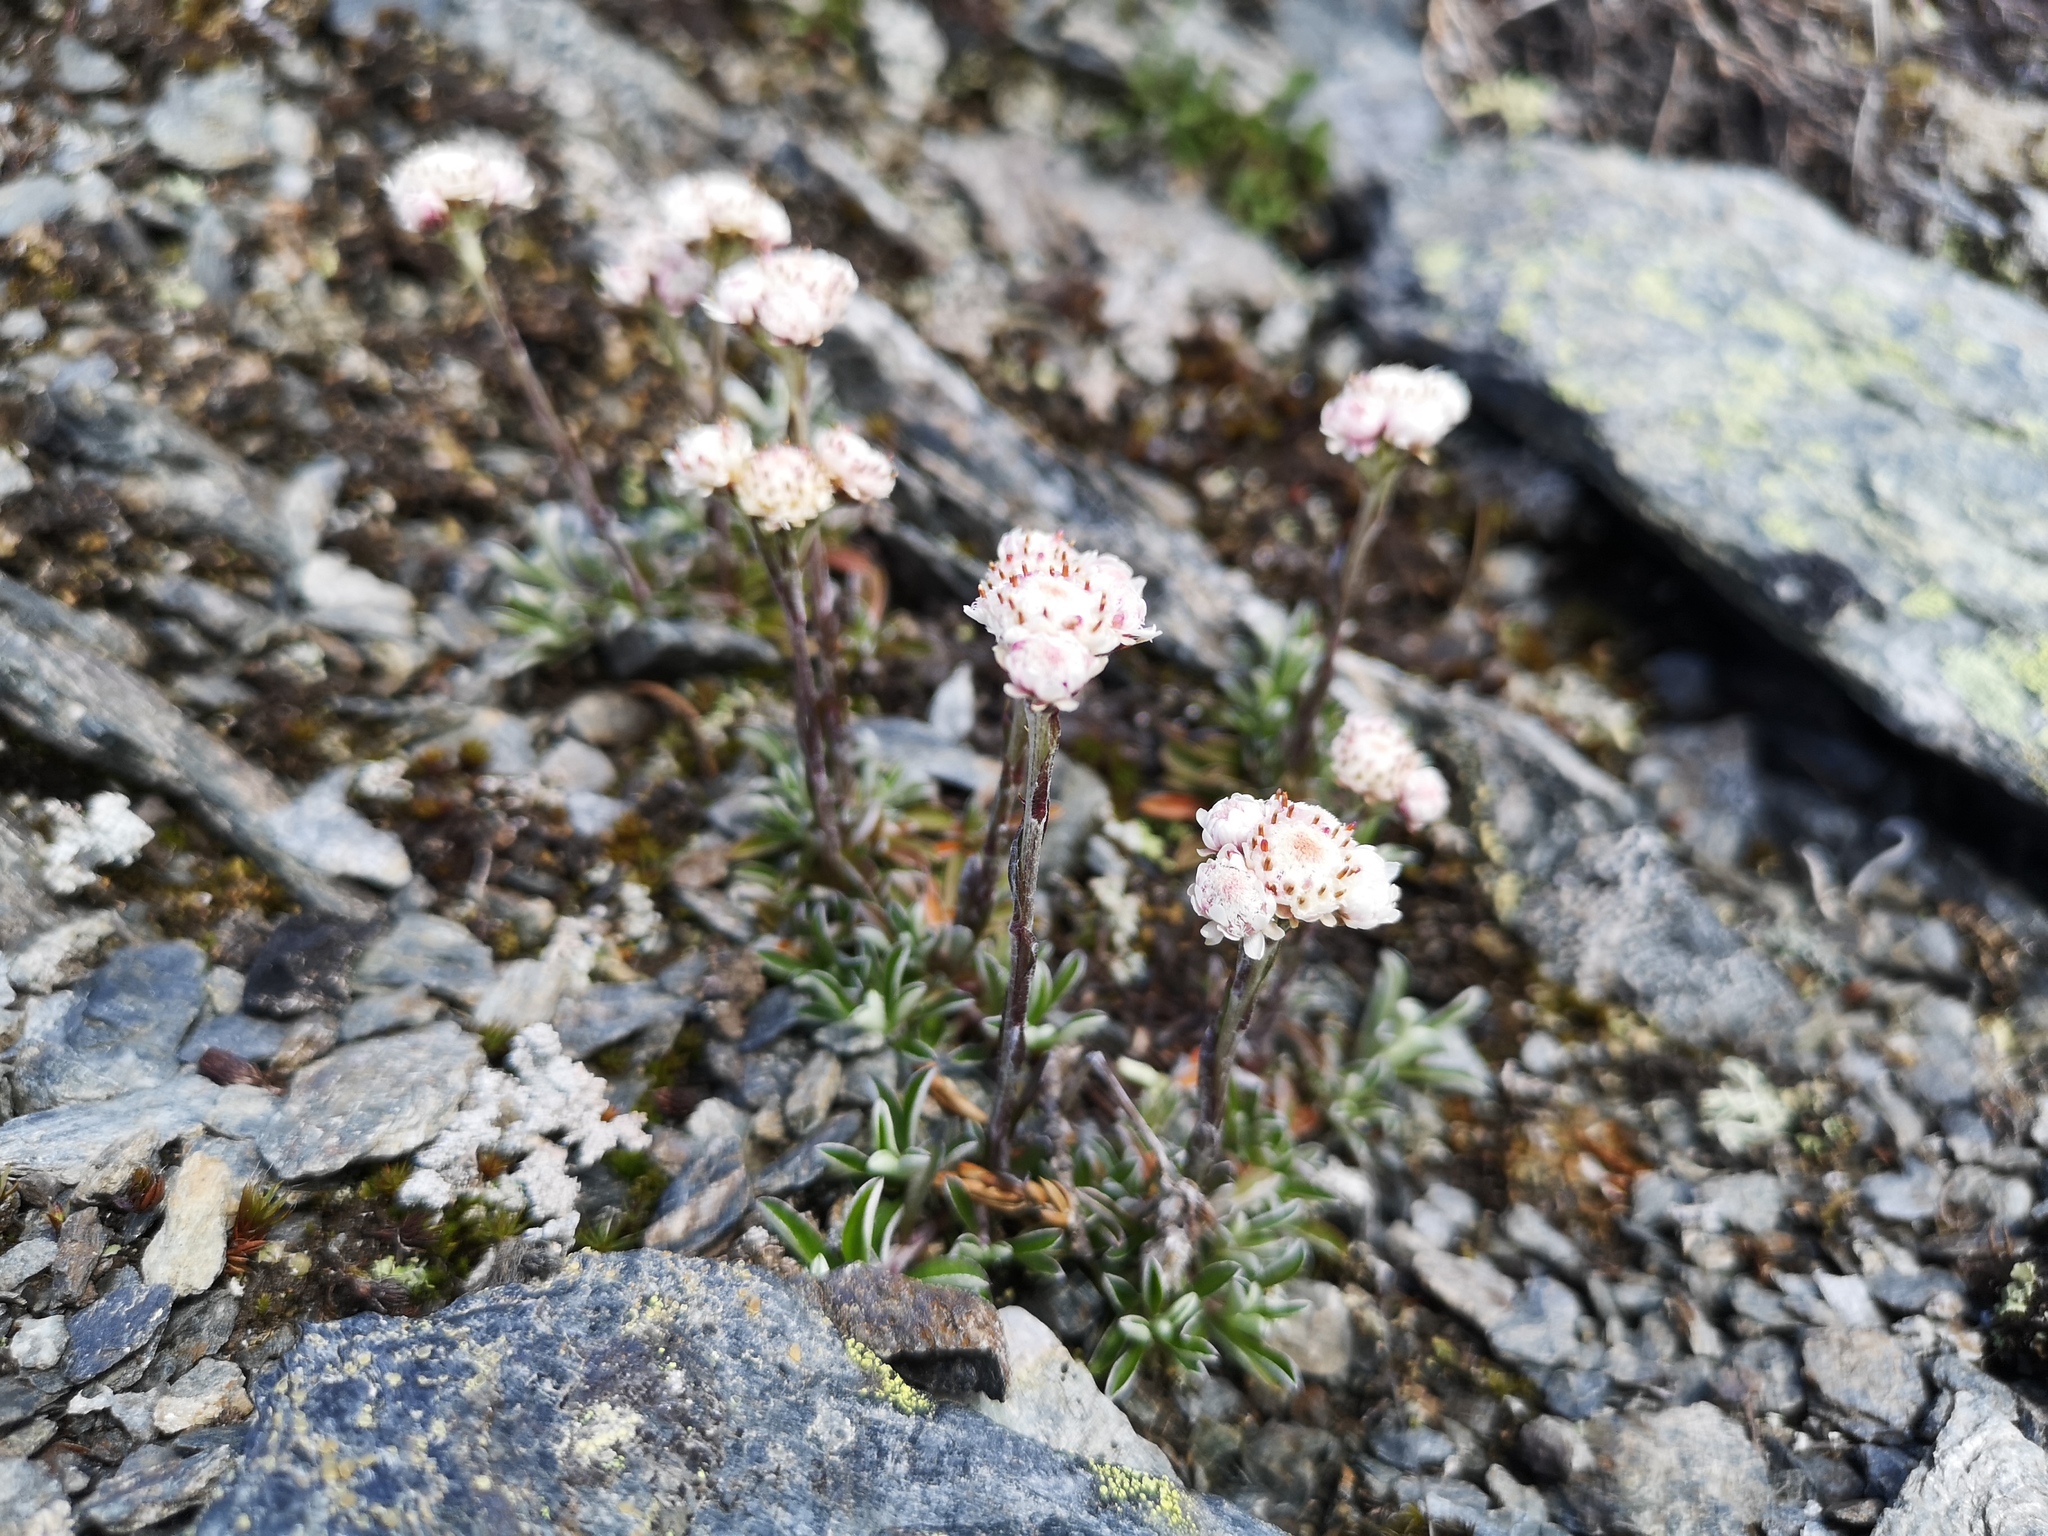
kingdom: Plantae
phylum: Tracheophyta
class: Magnoliopsida
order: Asterales
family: Asteraceae
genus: Antennaria
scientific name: Antennaria dioica
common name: Mountain everlasting
